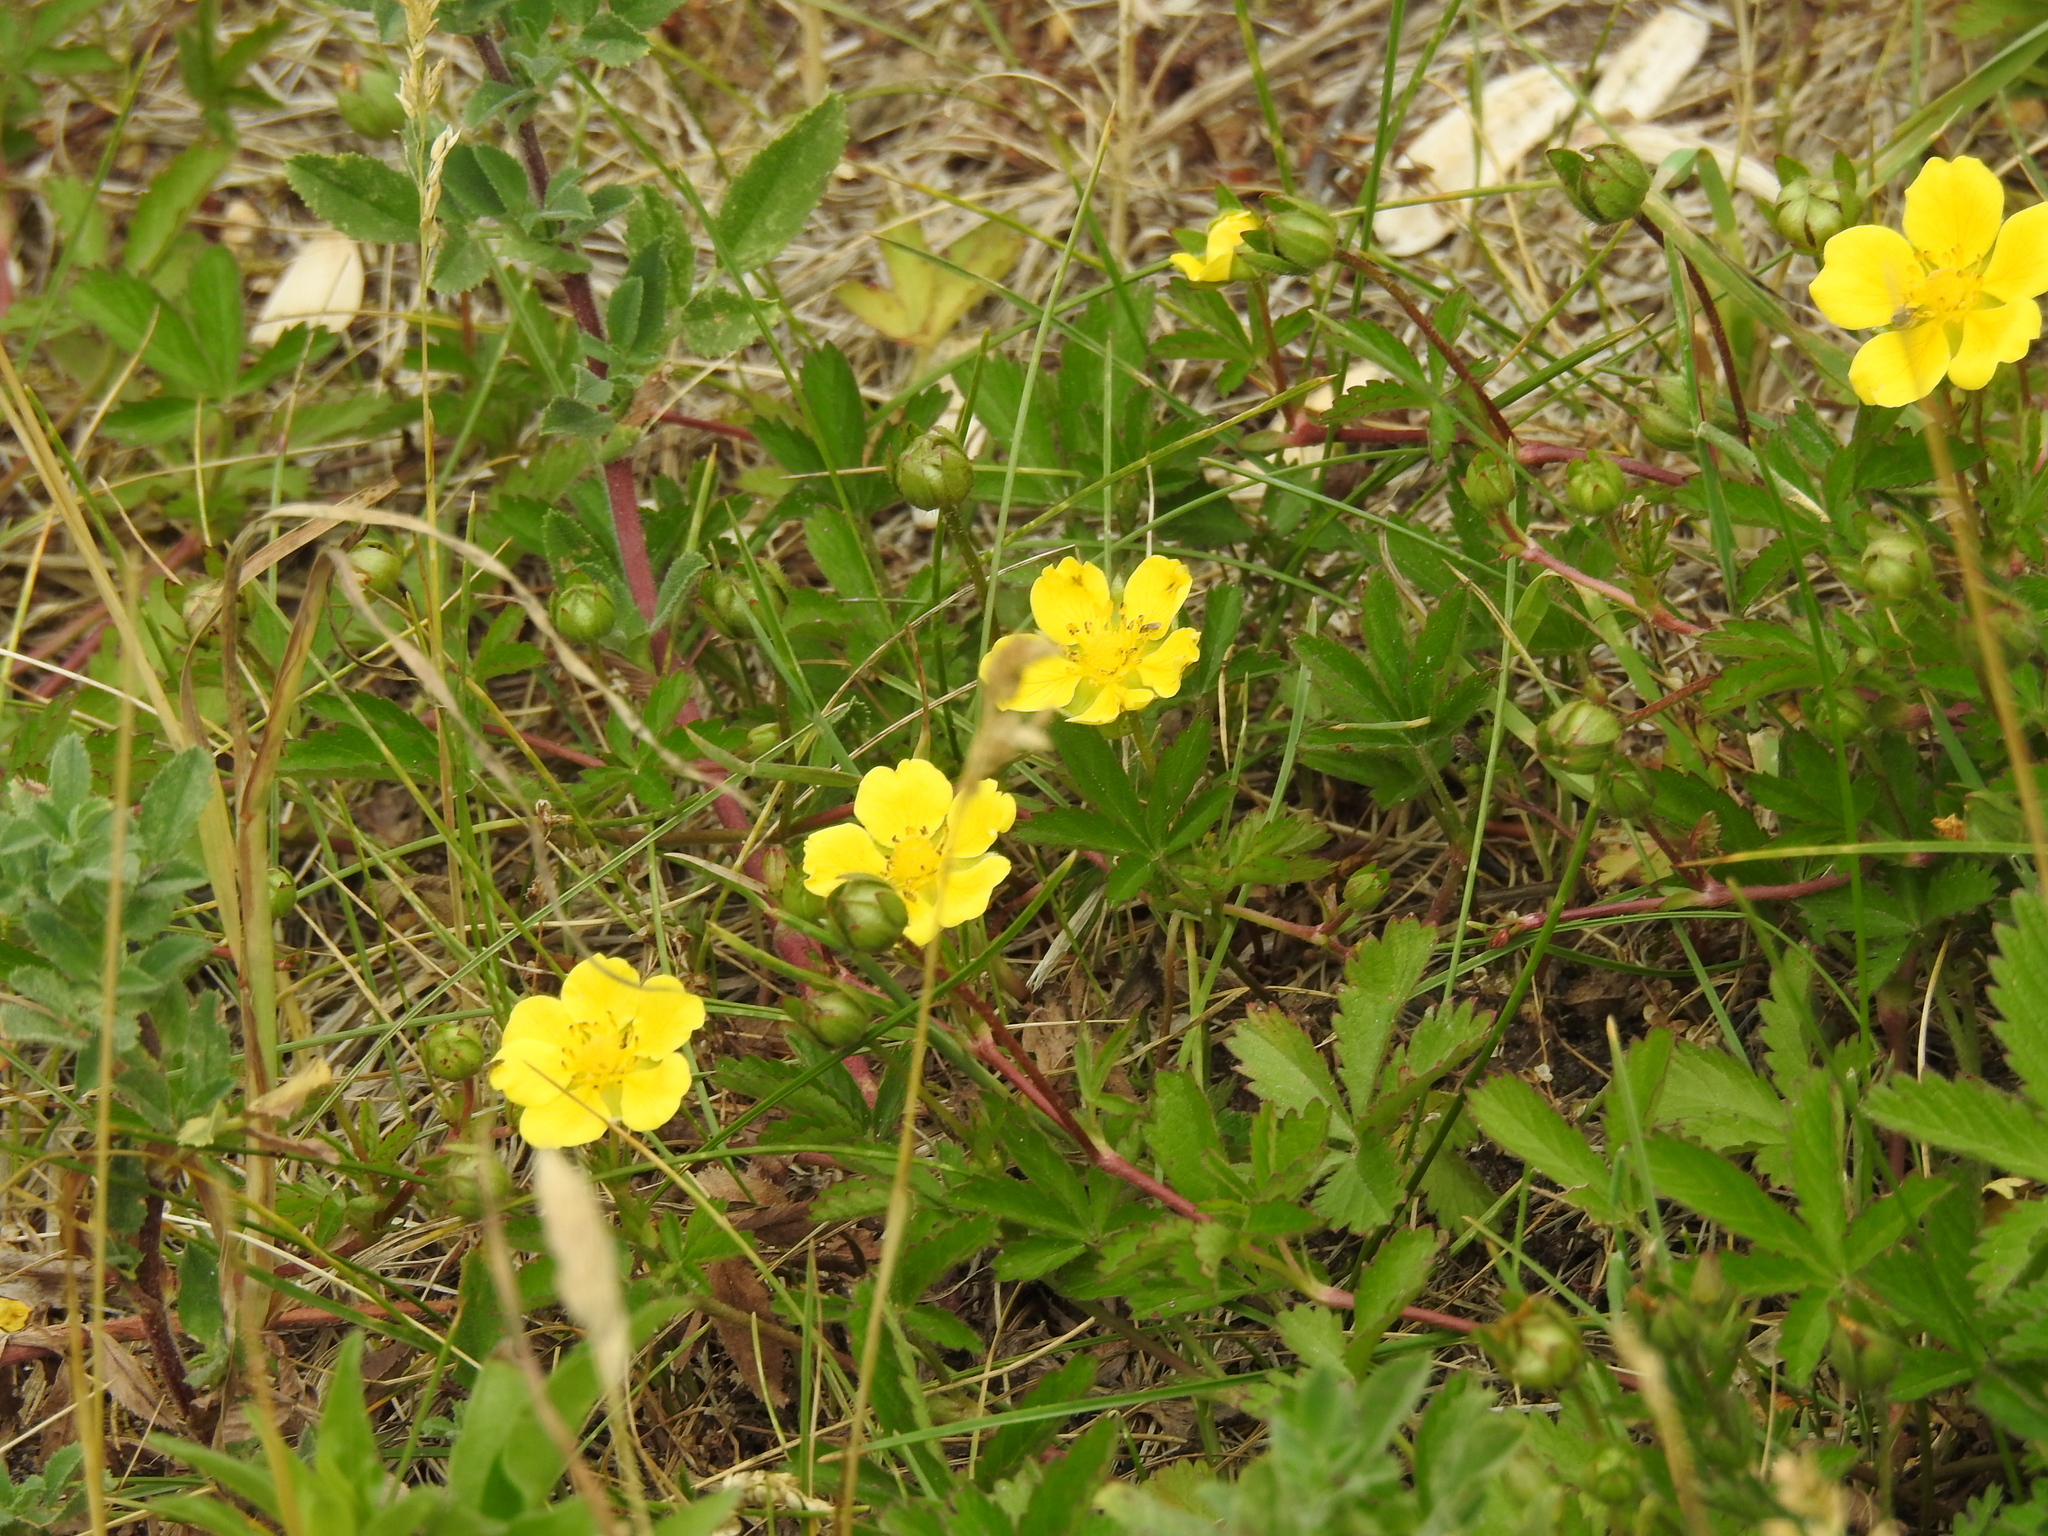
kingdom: Plantae
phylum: Tracheophyta
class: Magnoliopsida
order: Rosales
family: Rosaceae
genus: Potentilla
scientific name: Potentilla reptans
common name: Creeping cinquefoil
